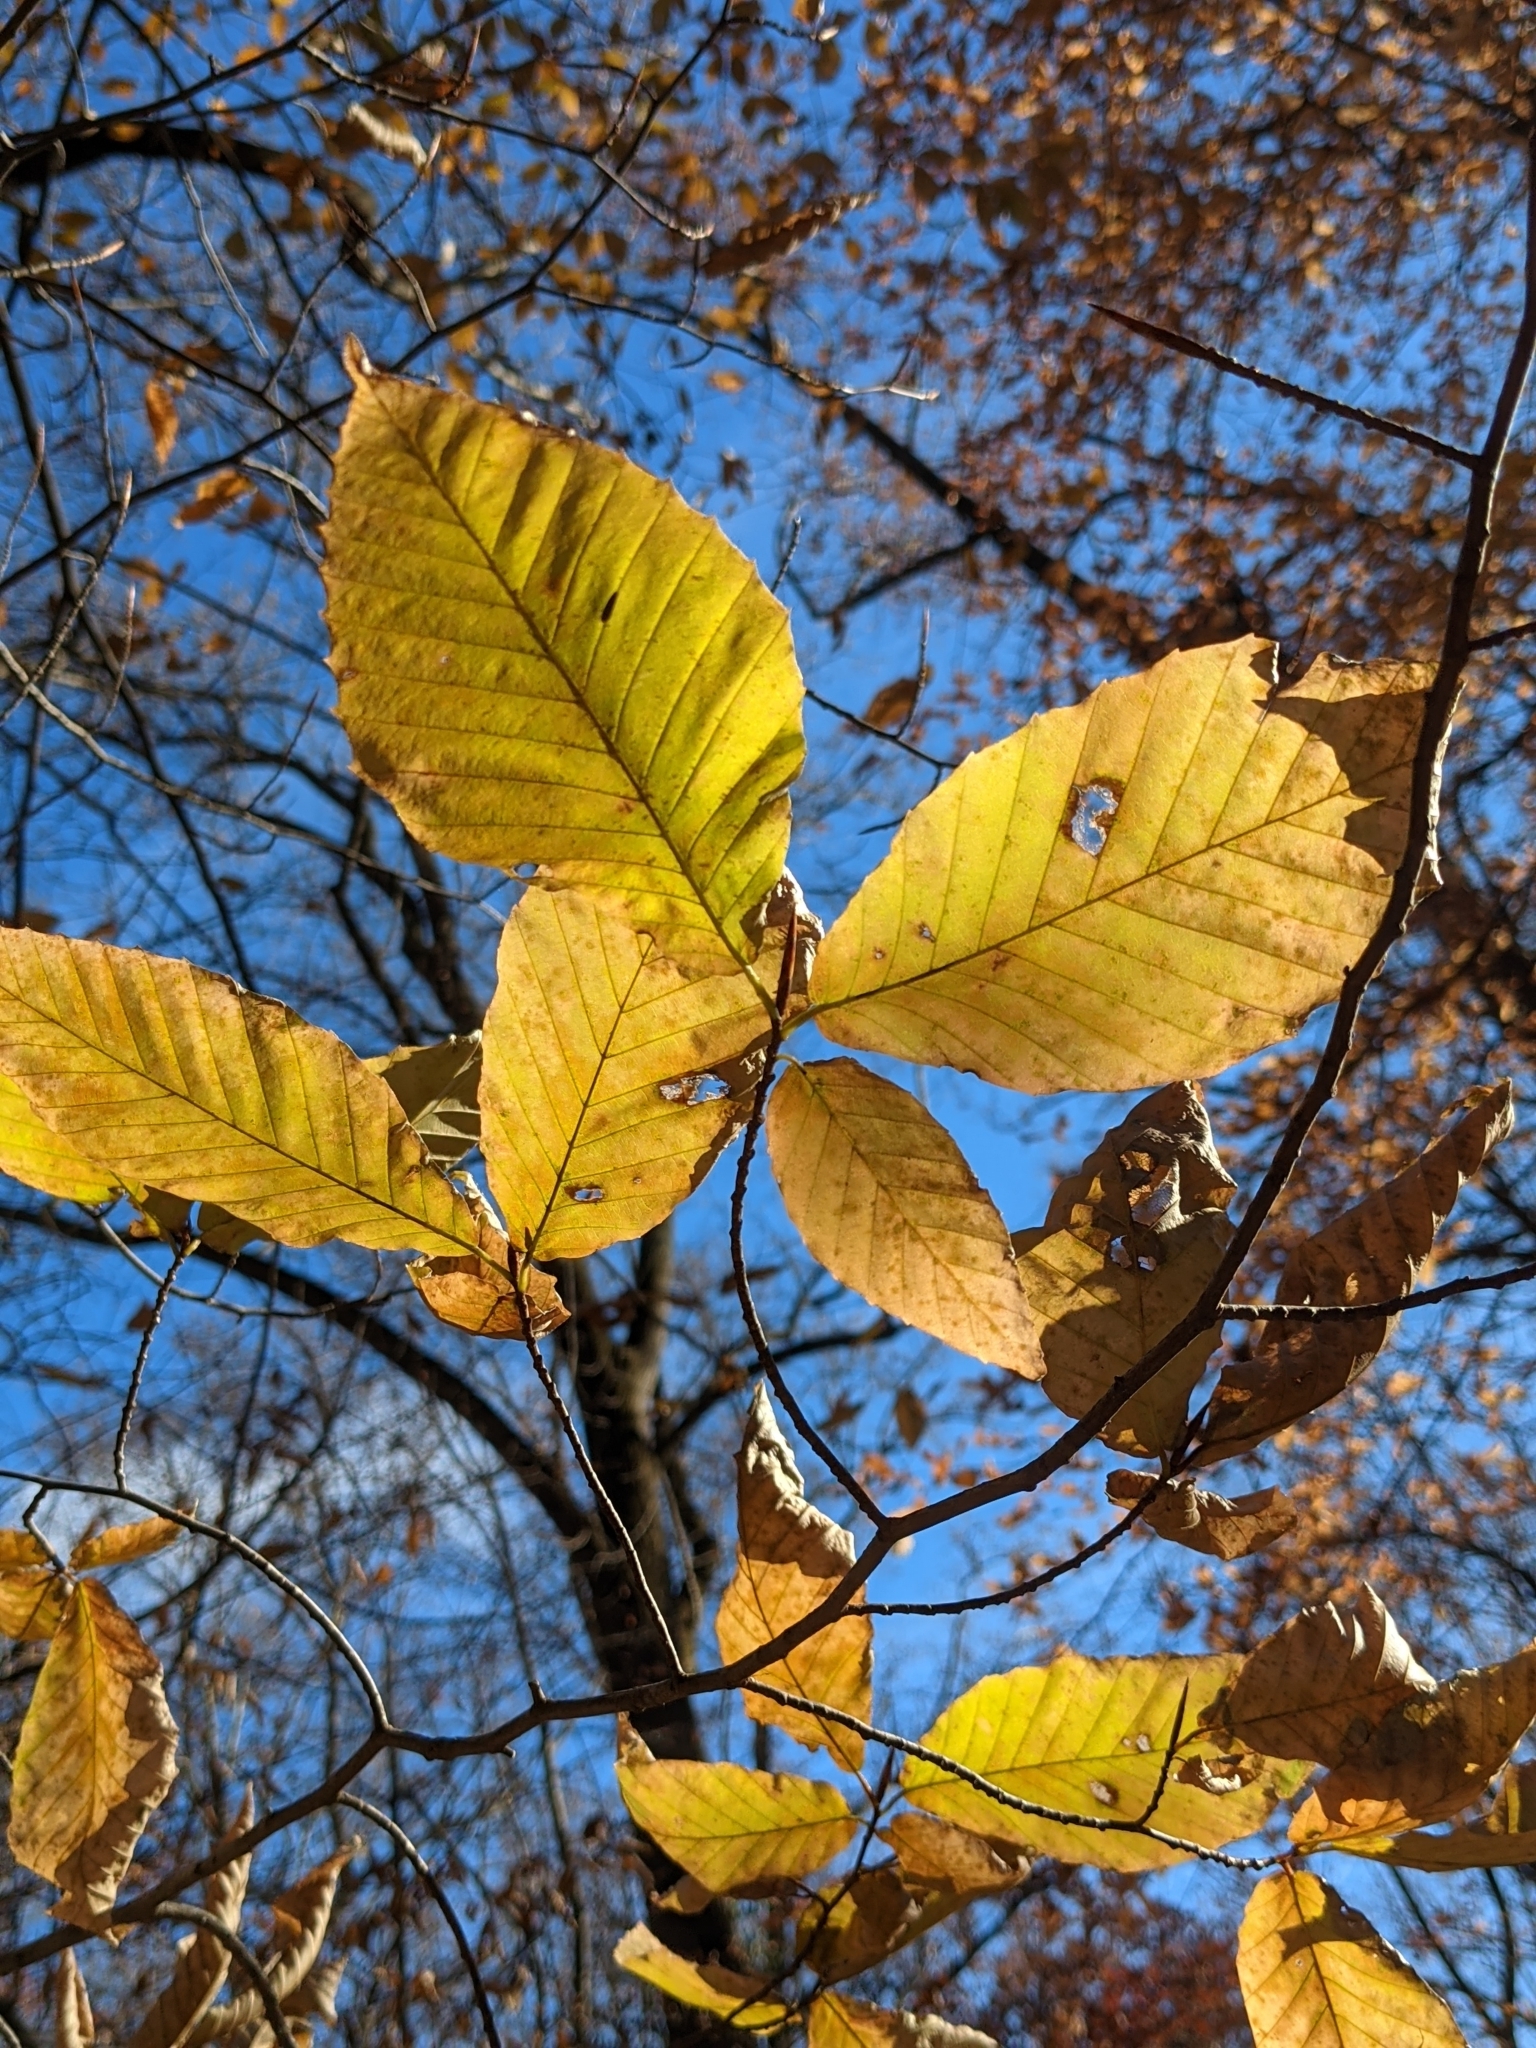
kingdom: Plantae
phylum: Tracheophyta
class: Magnoliopsida
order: Fagales
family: Fagaceae
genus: Fagus
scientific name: Fagus grandifolia
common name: American beech
